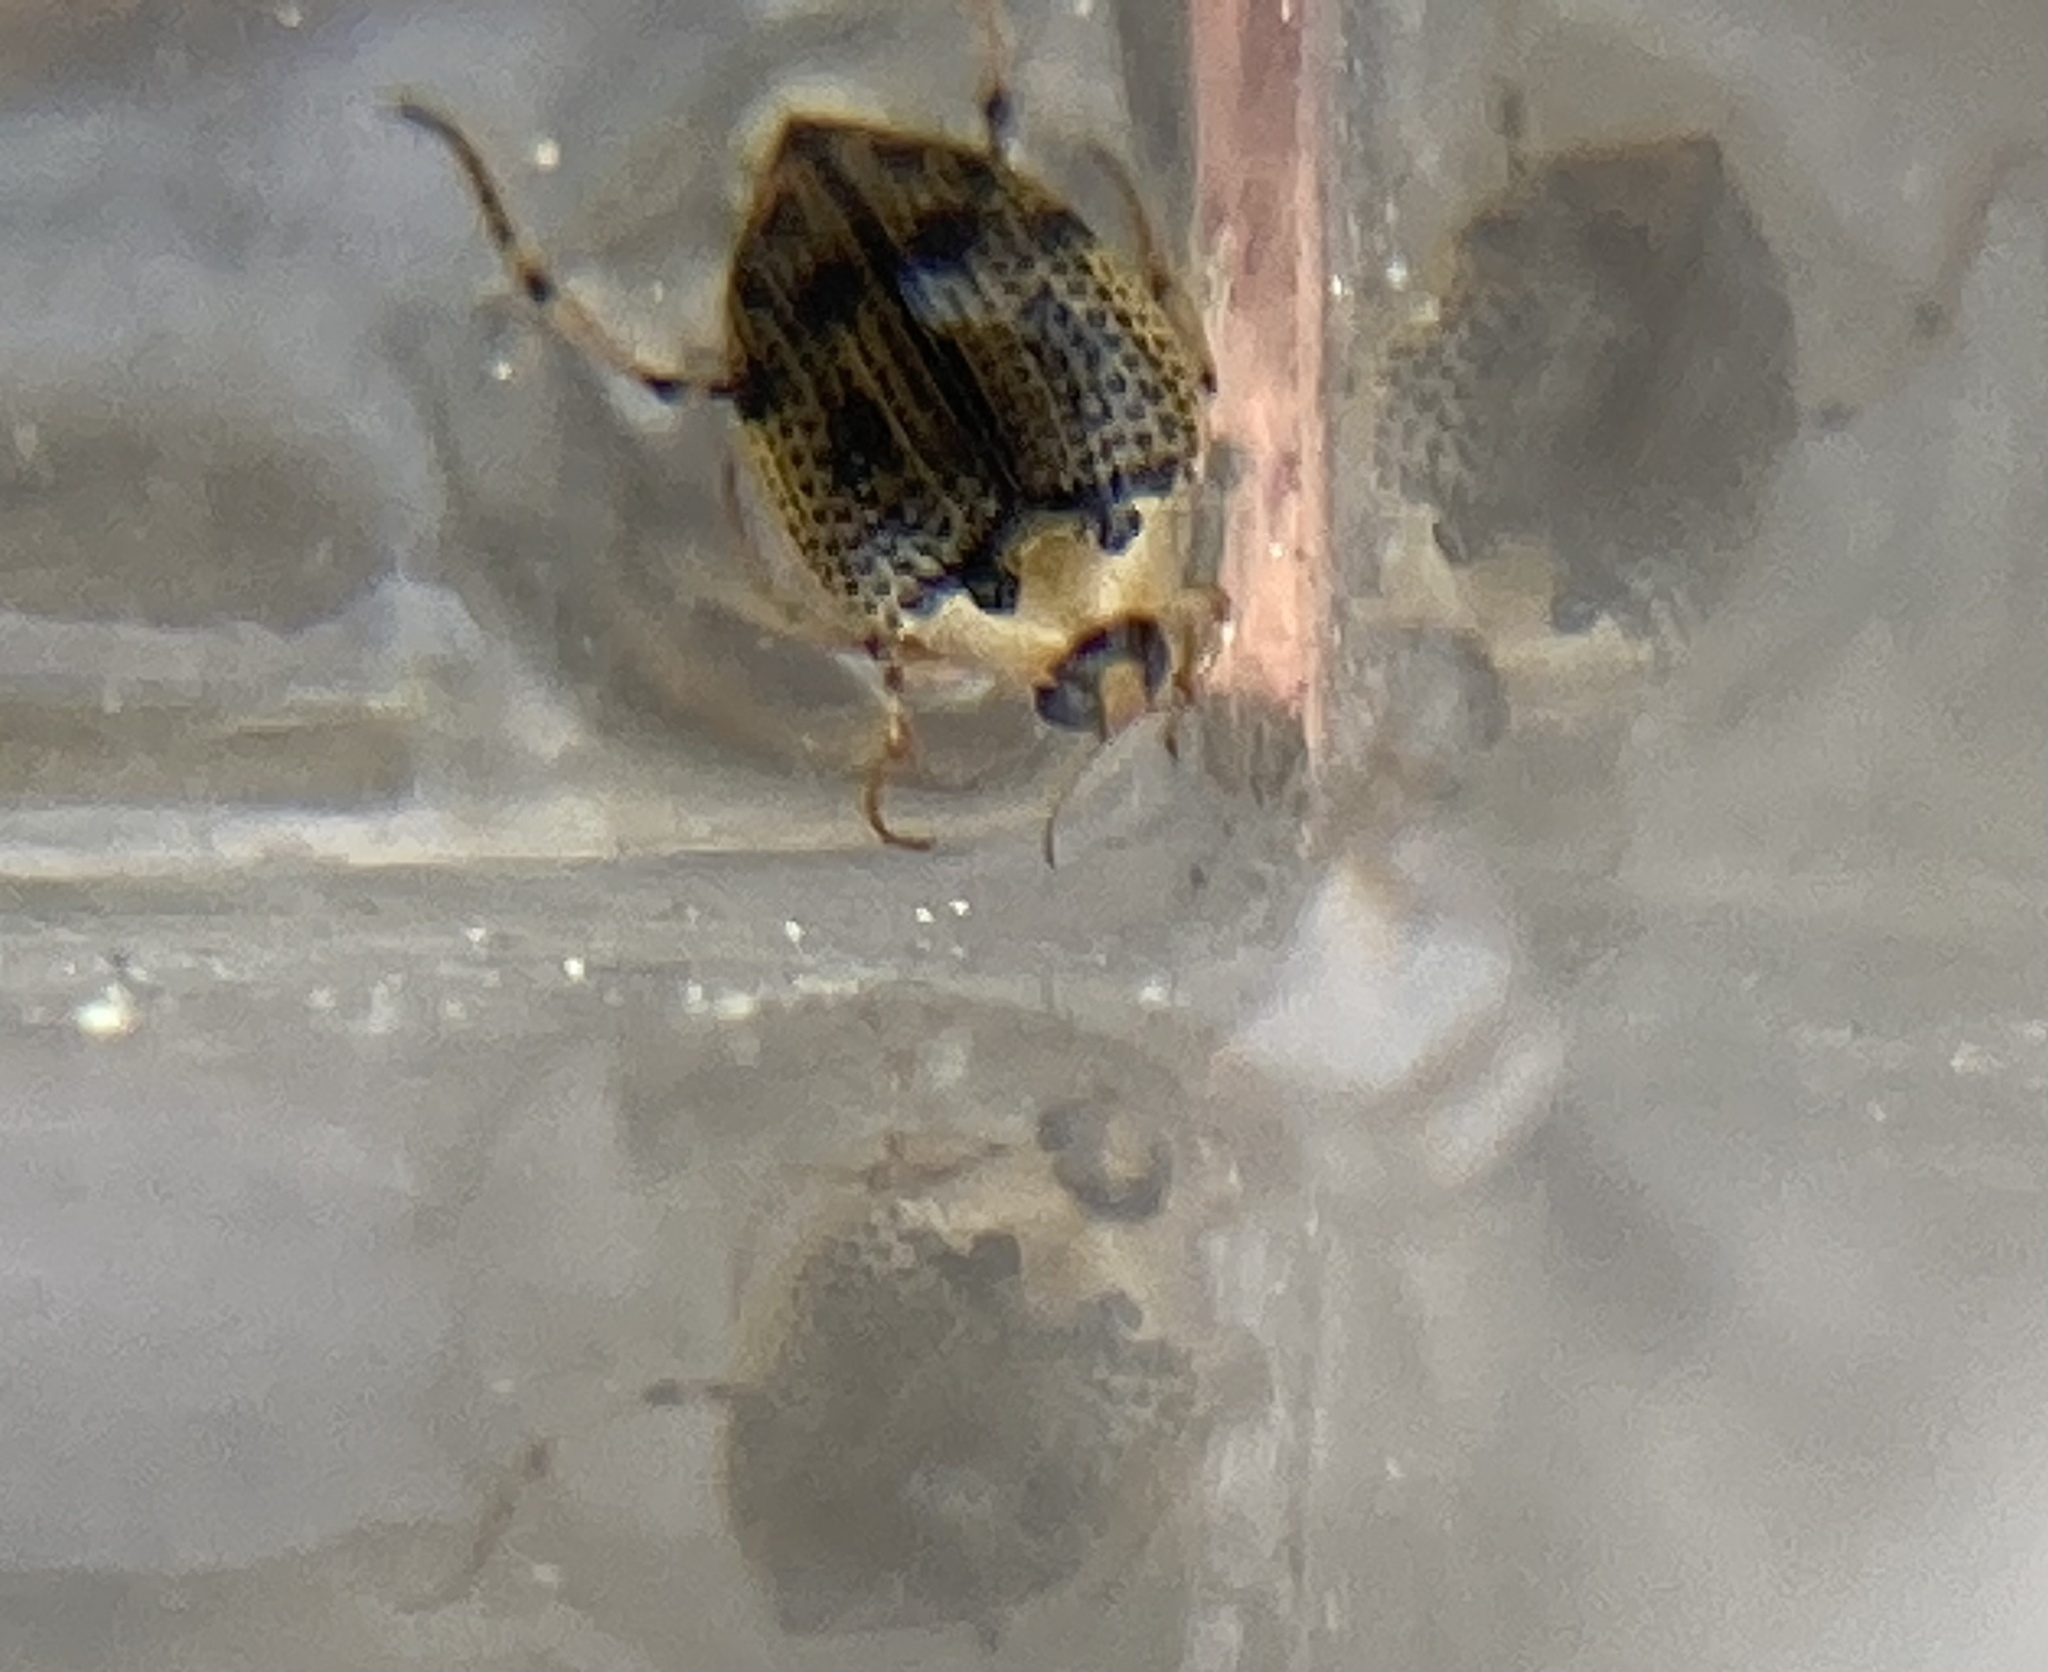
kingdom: Animalia
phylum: Arthropoda
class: Insecta
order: Coleoptera
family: Haliplidae
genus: Peltodytes
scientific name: Peltodytes edentulus
